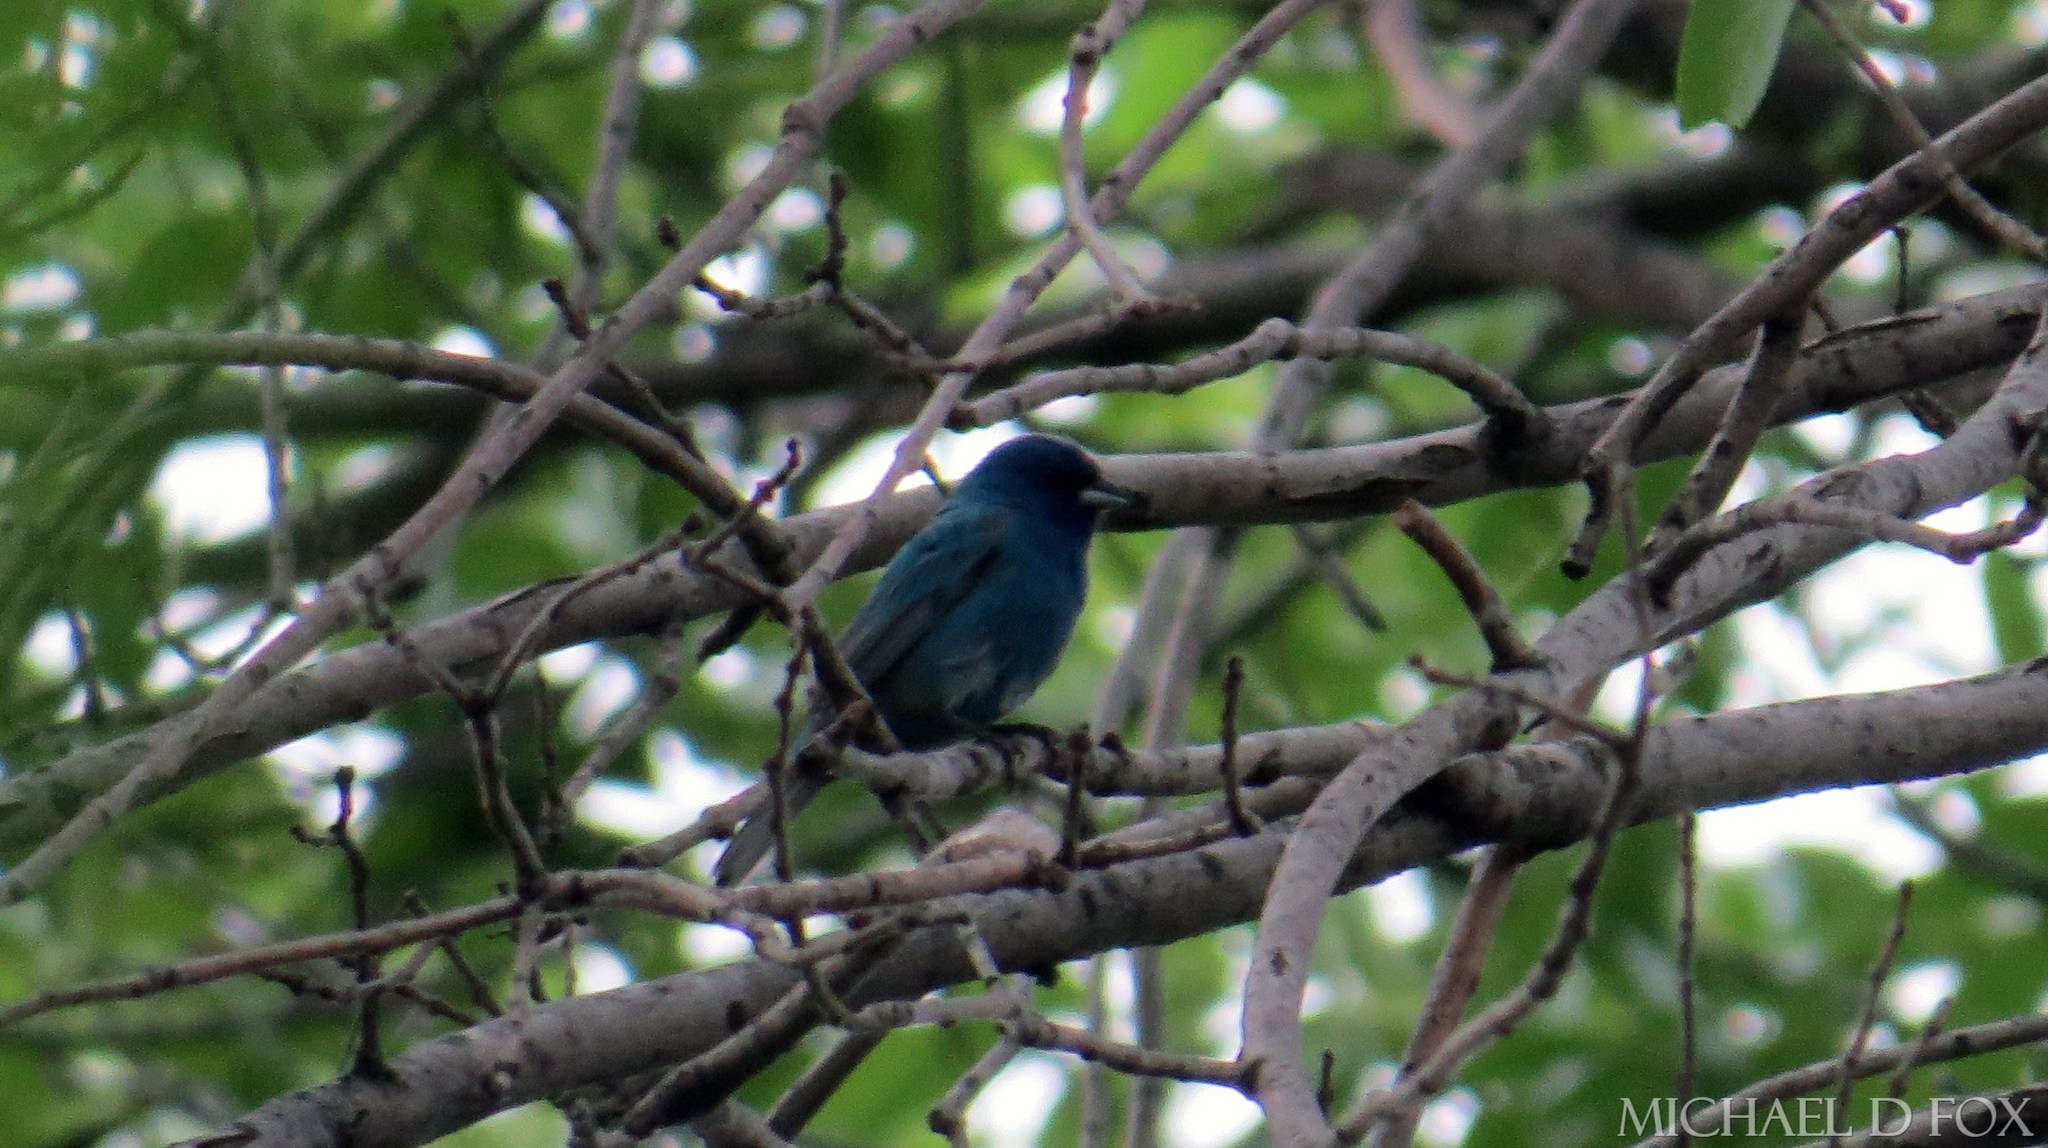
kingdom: Animalia
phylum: Chordata
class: Aves
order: Passeriformes
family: Cardinalidae
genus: Passerina
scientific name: Passerina cyanea
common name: Indigo bunting
